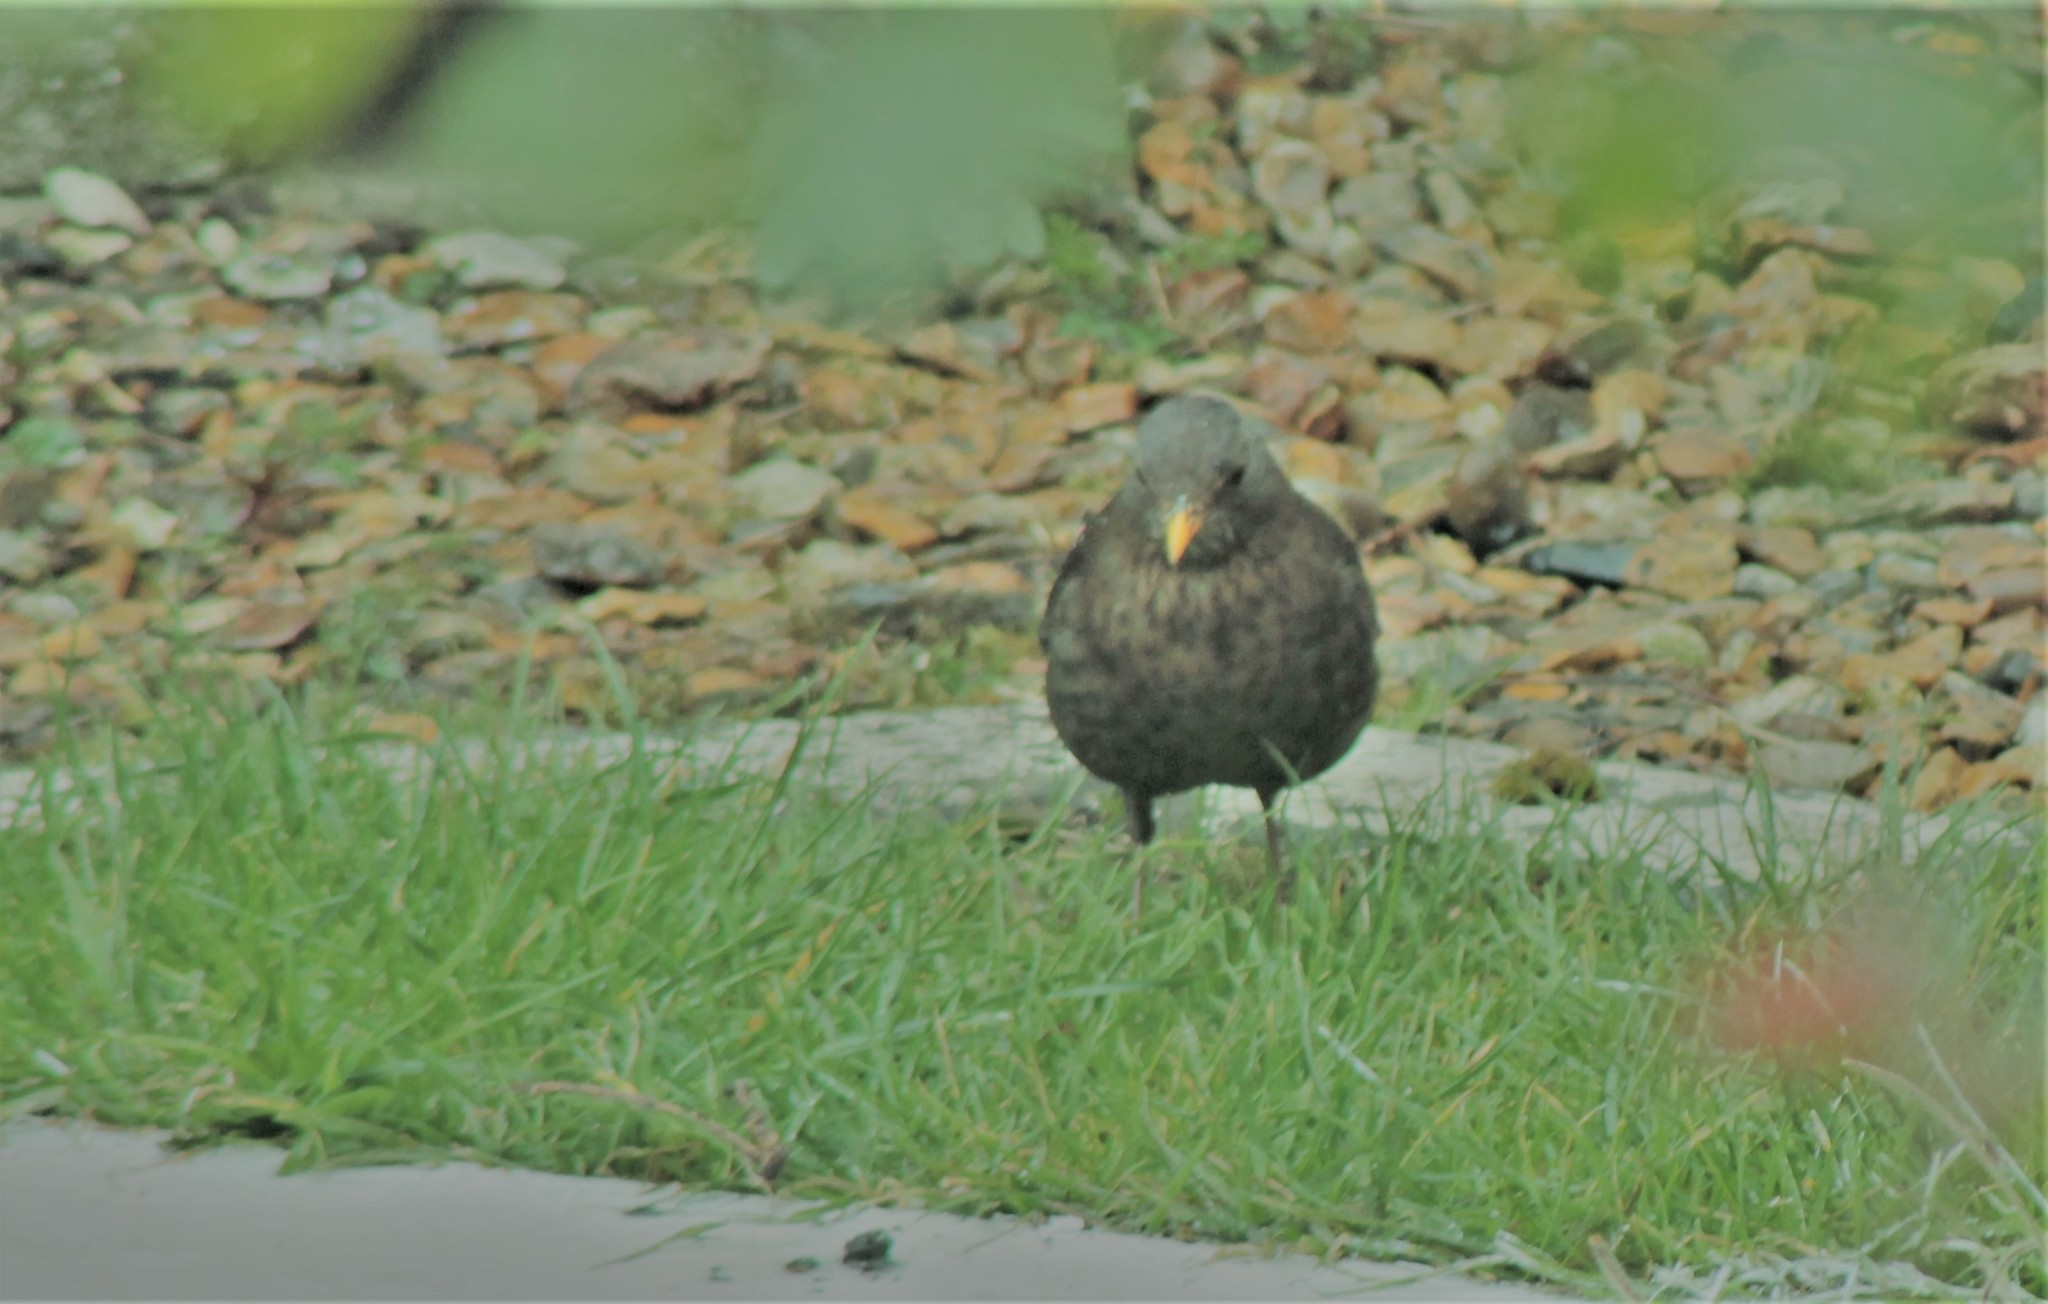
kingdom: Animalia
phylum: Chordata
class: Aves
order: Passeriformes
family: Turdidae
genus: Turdus
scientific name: Turdus merula
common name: Common blackbird
